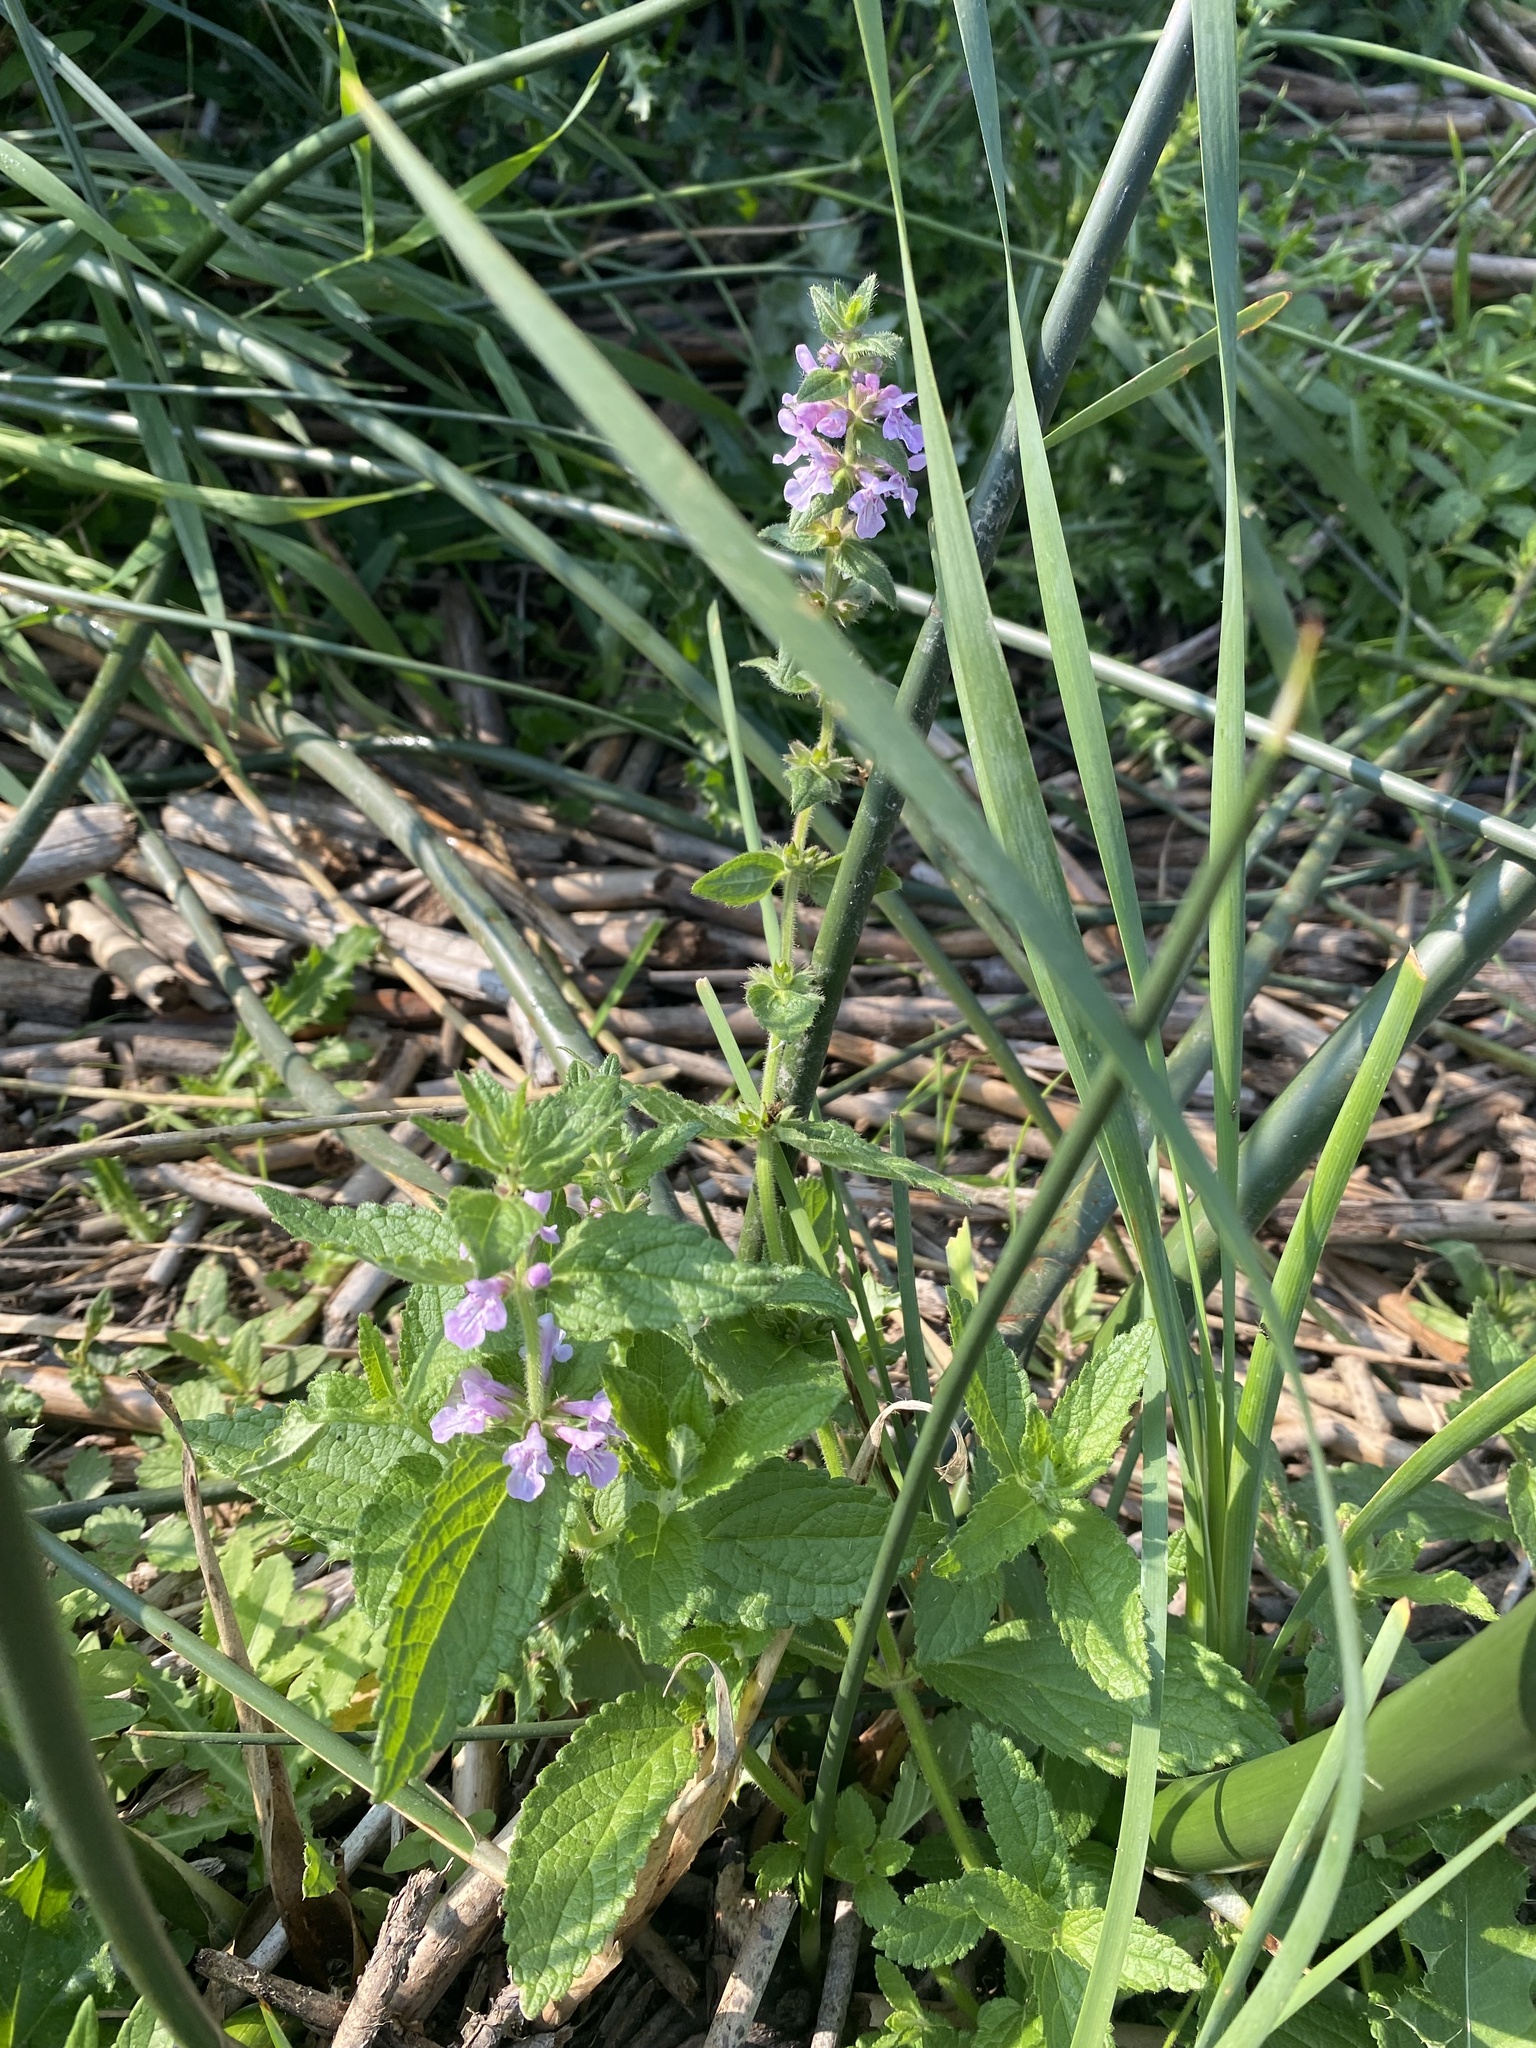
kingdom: Plantae
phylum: Tracheophyta
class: Magnoliopsida
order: Lamiales
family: Lamiaceae
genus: Stachys
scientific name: Stachys palustris
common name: Marsh woundwort
